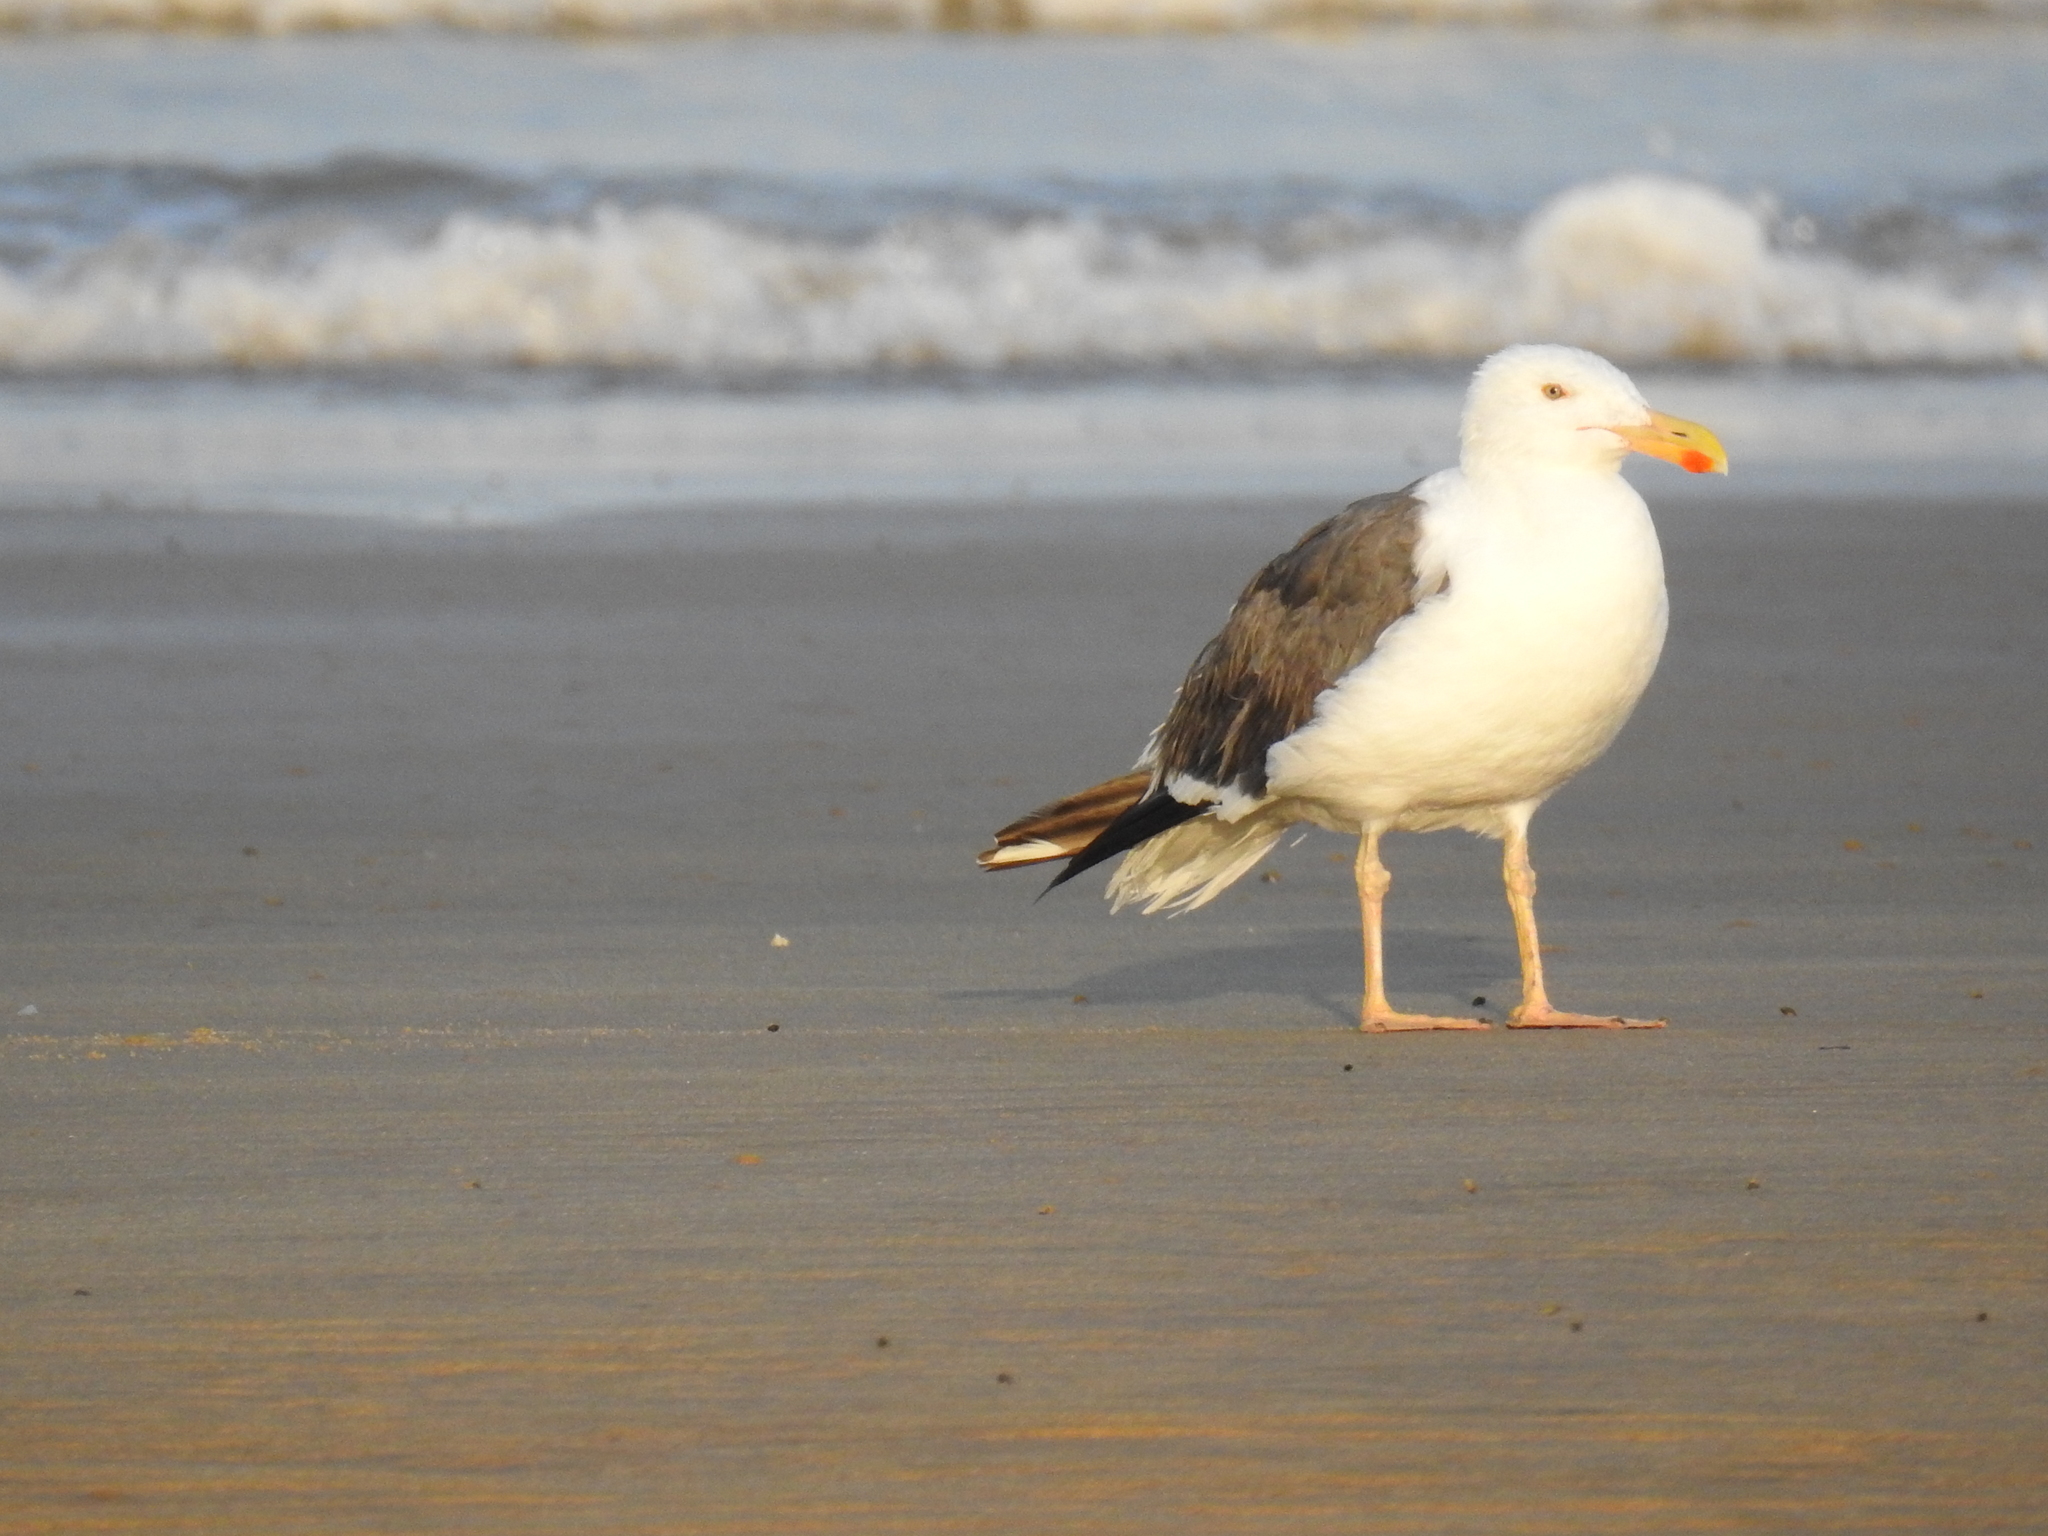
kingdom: Animalia
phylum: Chordata
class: Aves
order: Charadriiformes
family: Laridae
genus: Larus
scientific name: Larus livens
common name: Yellow-footed gull
